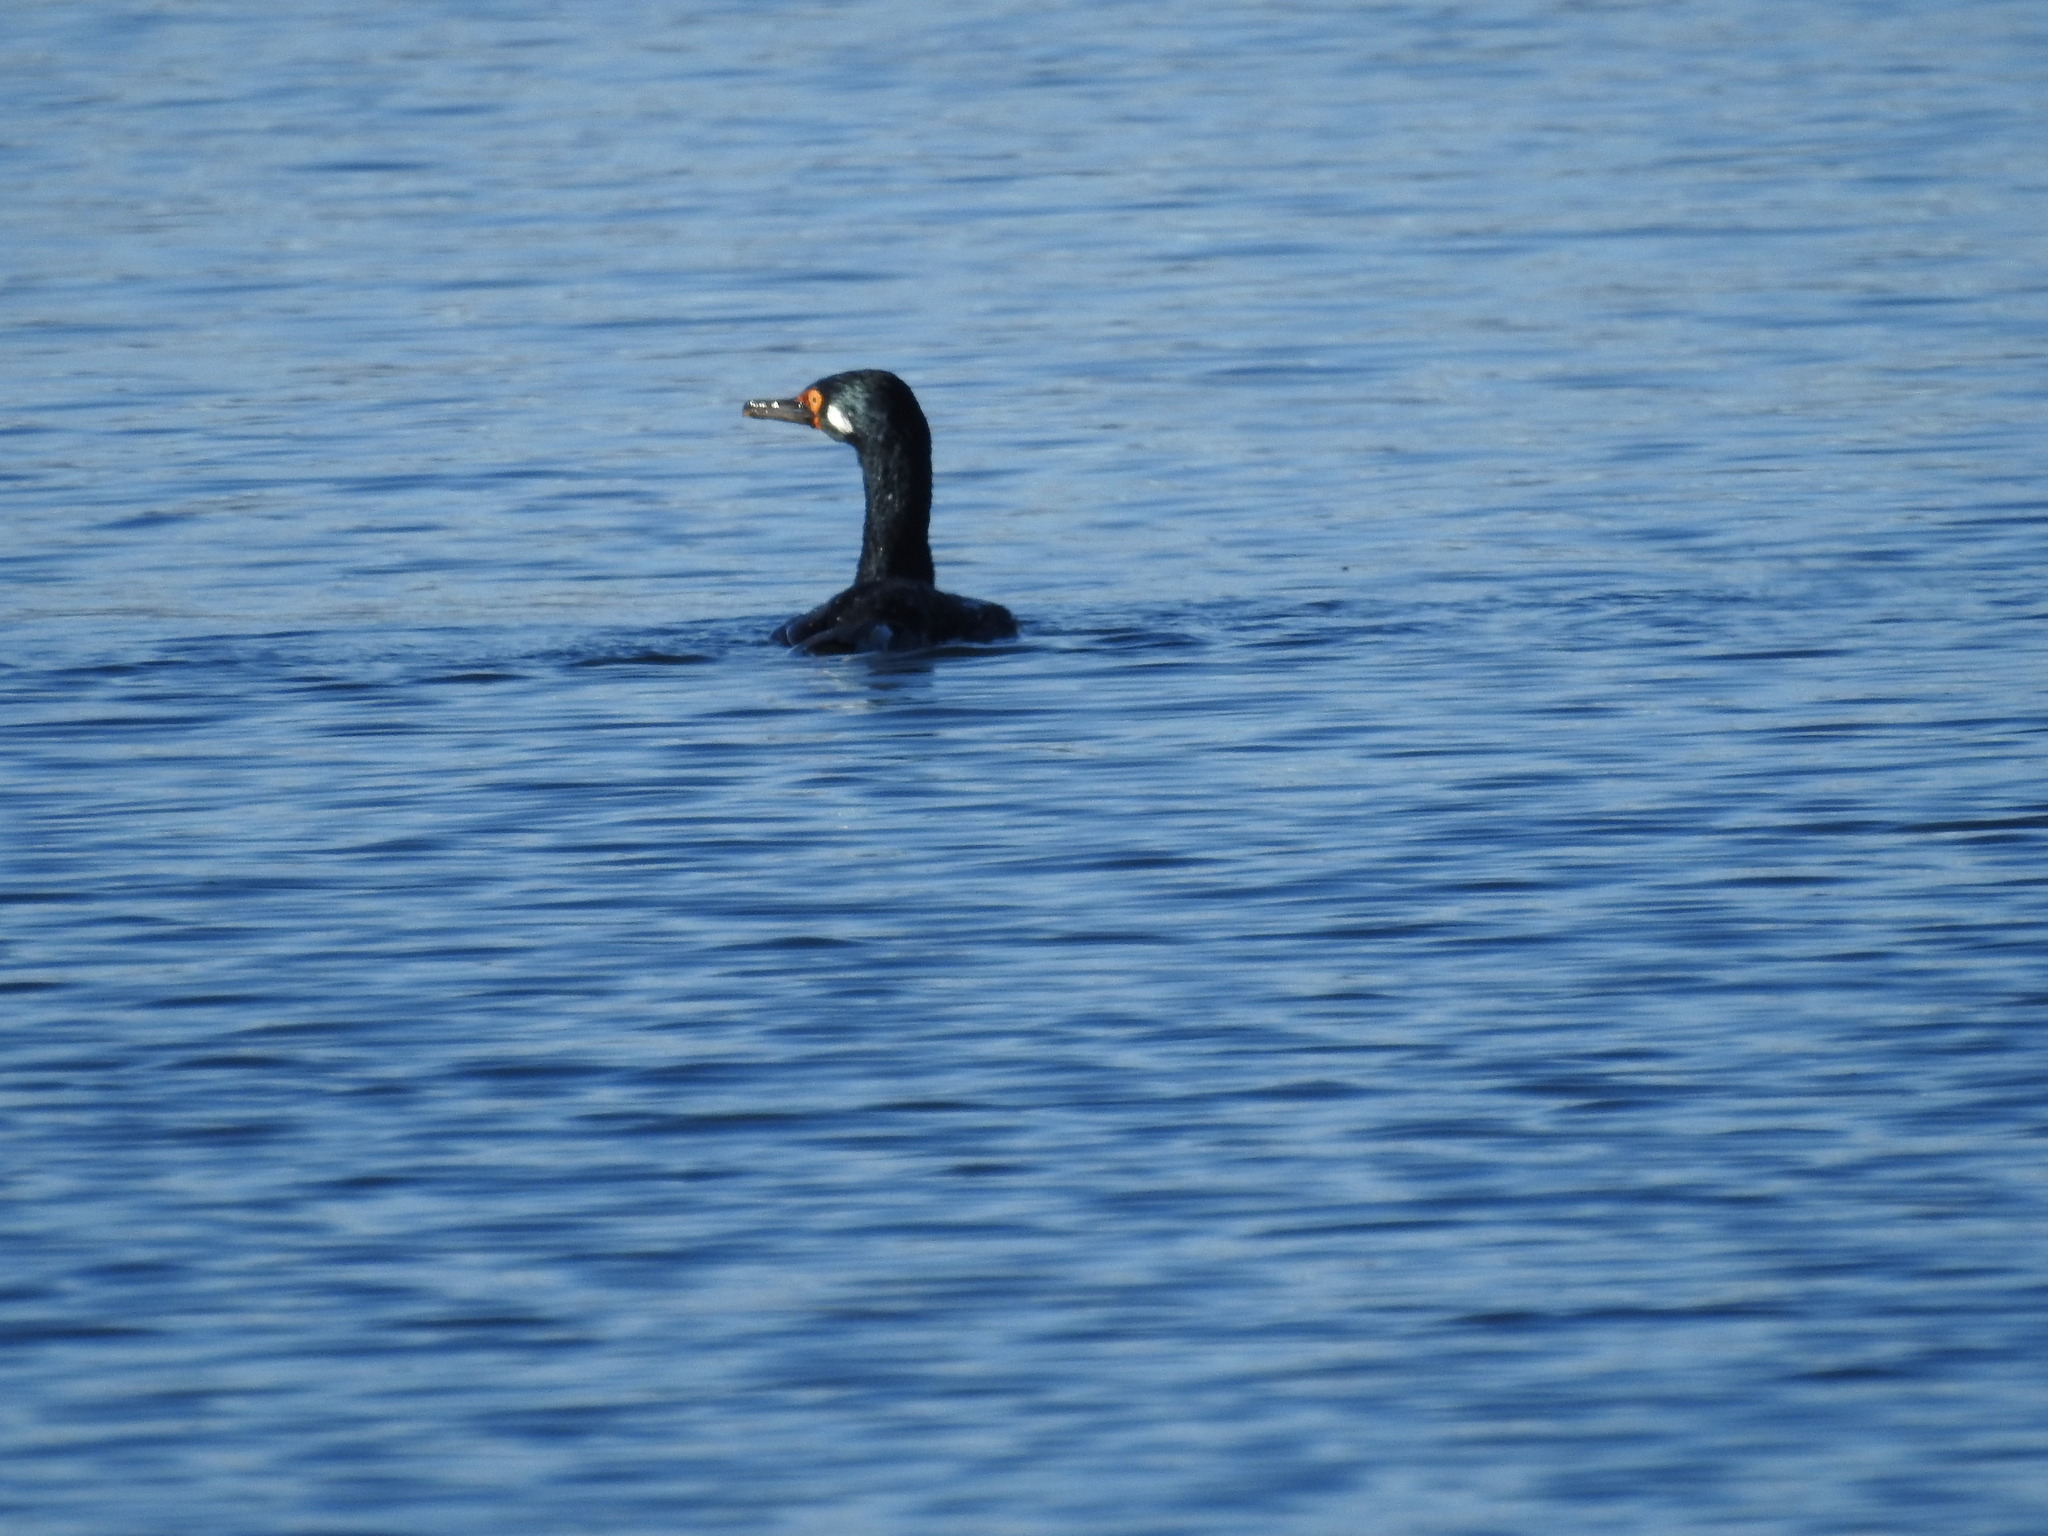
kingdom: Animalia
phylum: Chordata
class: Aves
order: Suliformes
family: Phalacrocoracidae
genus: Phalacrocorax
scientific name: Phalacrocorax magellanicus
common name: Rock shag
